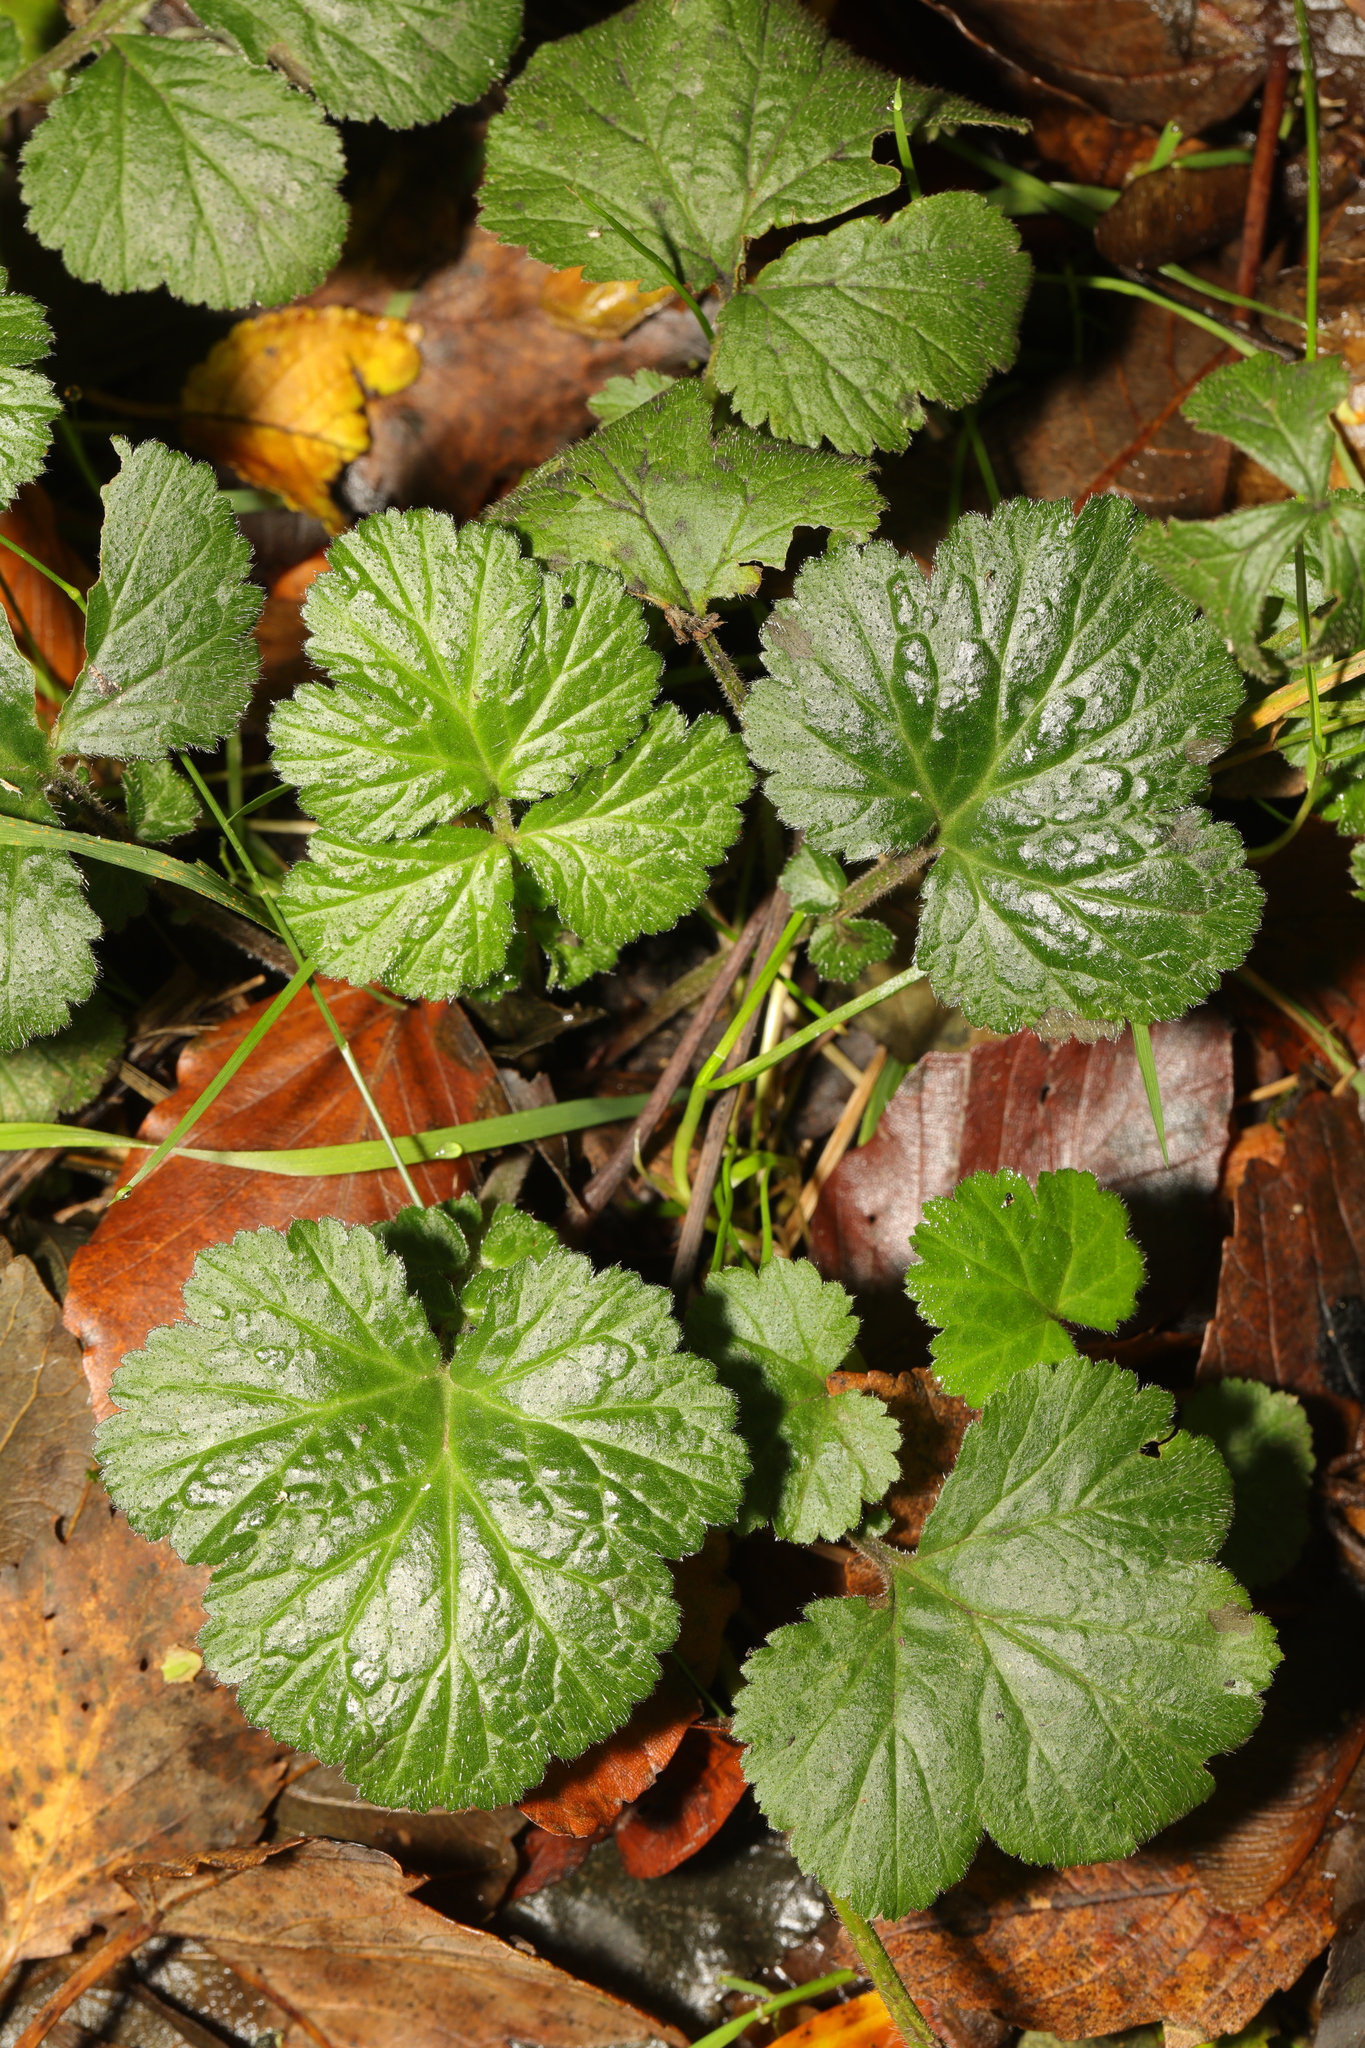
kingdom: Plantae
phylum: Tracheophyta
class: Magnoliopsida
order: Rosales
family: Rosaceae
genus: Geum
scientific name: Geum urbanum
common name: Wood avens
